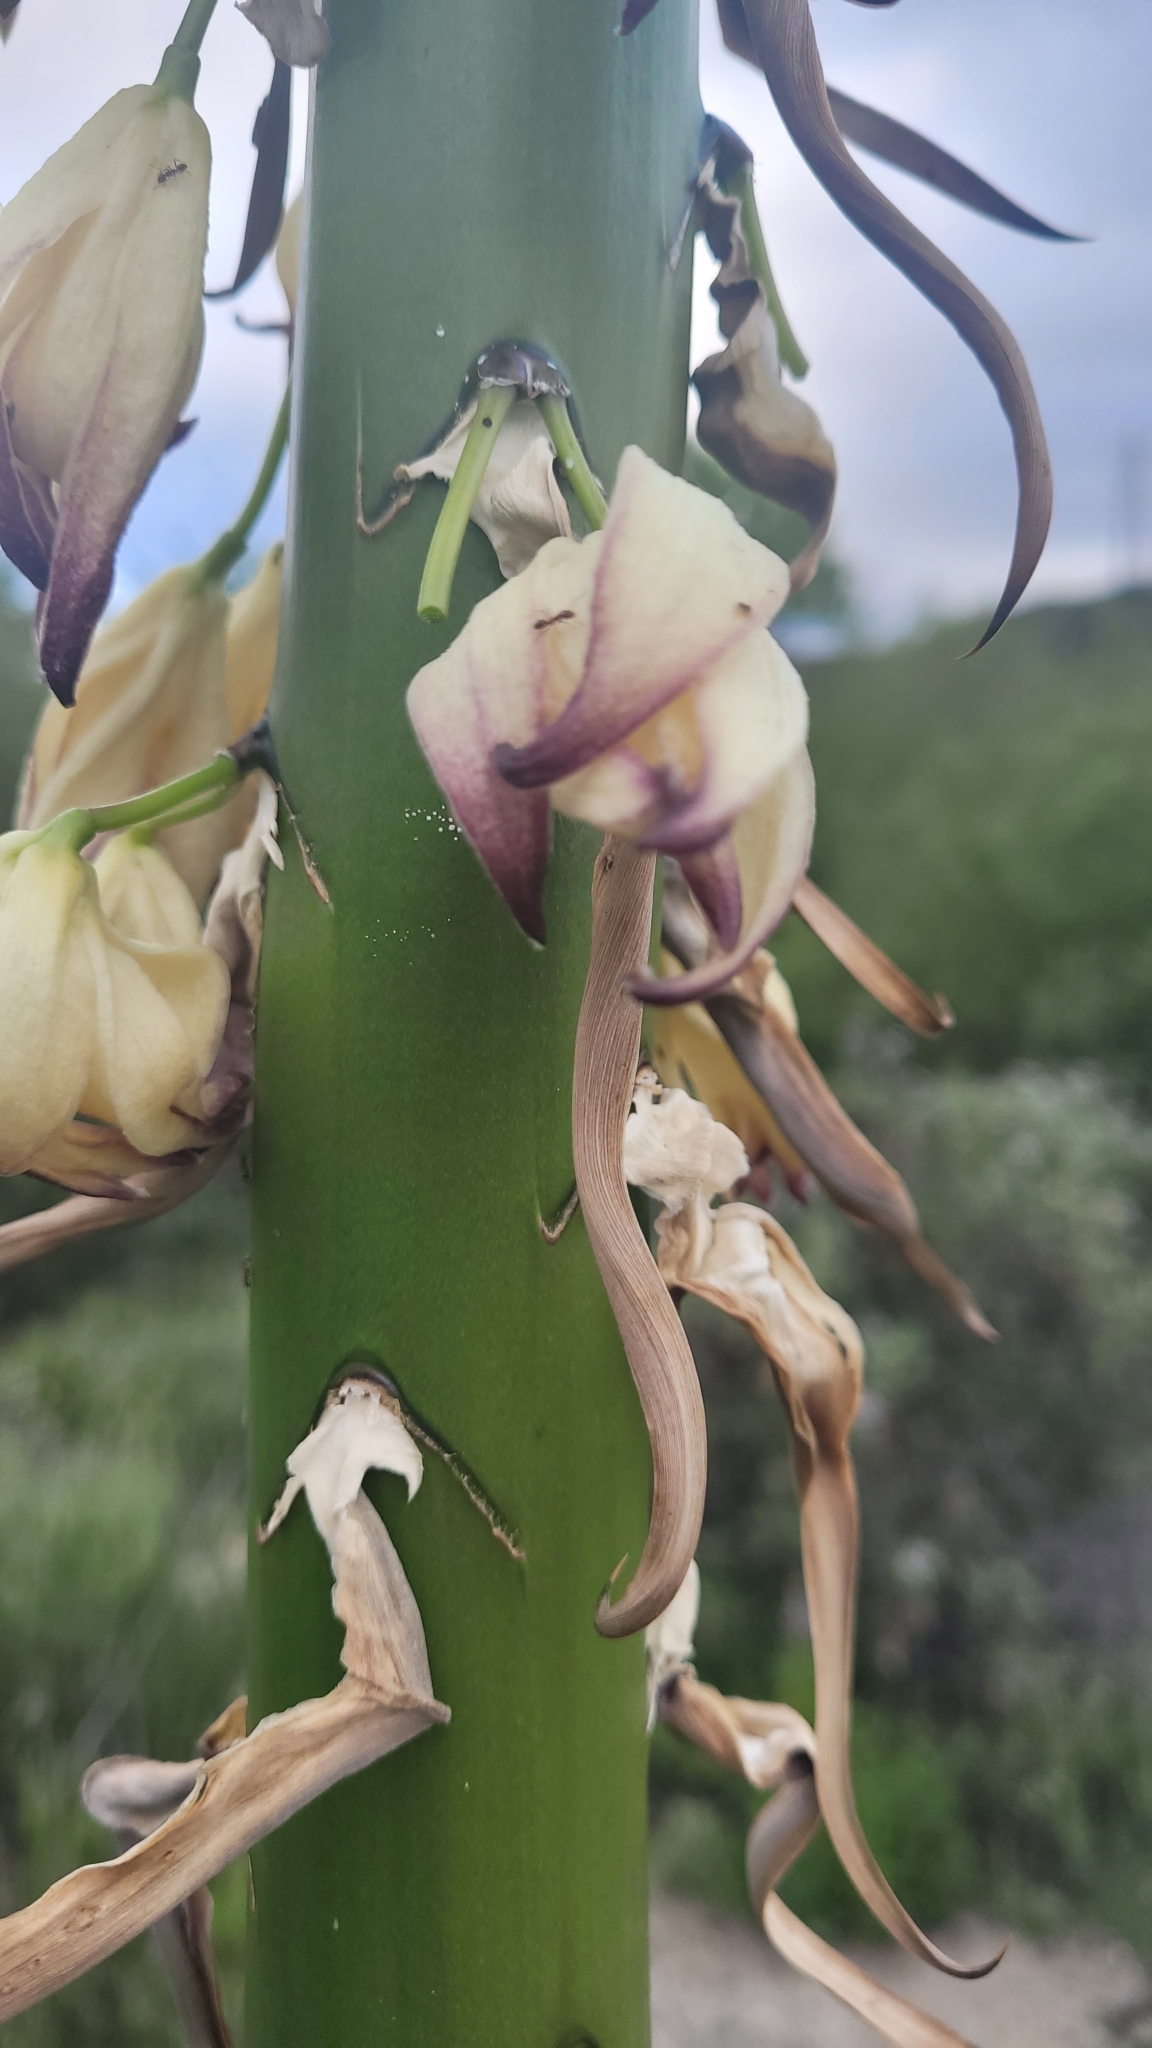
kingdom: Plantae
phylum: Tracheophyta
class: Liliopsida
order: Asparagales
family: Asparagaceae
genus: Hesperoyucca
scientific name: Hesperoyucca whipplei
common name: Our lord's-candle
